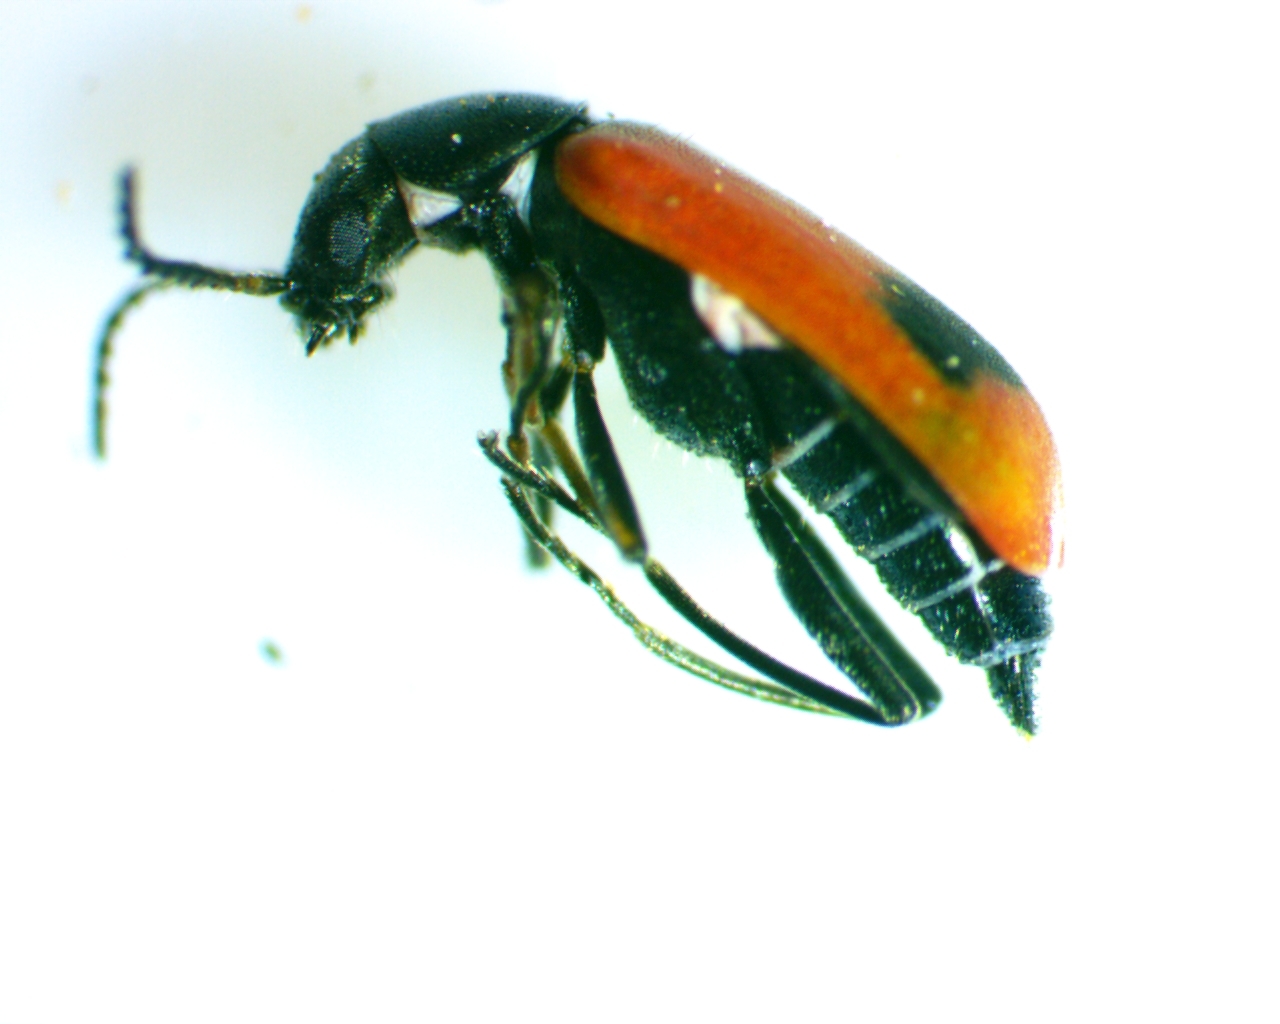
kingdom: Animalia
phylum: Arthropoda
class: Insecta
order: Coleoptera
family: Melyridae
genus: Anthocomus
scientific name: Anthocomus equestris
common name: Black-banded soft-winged flower beetle
